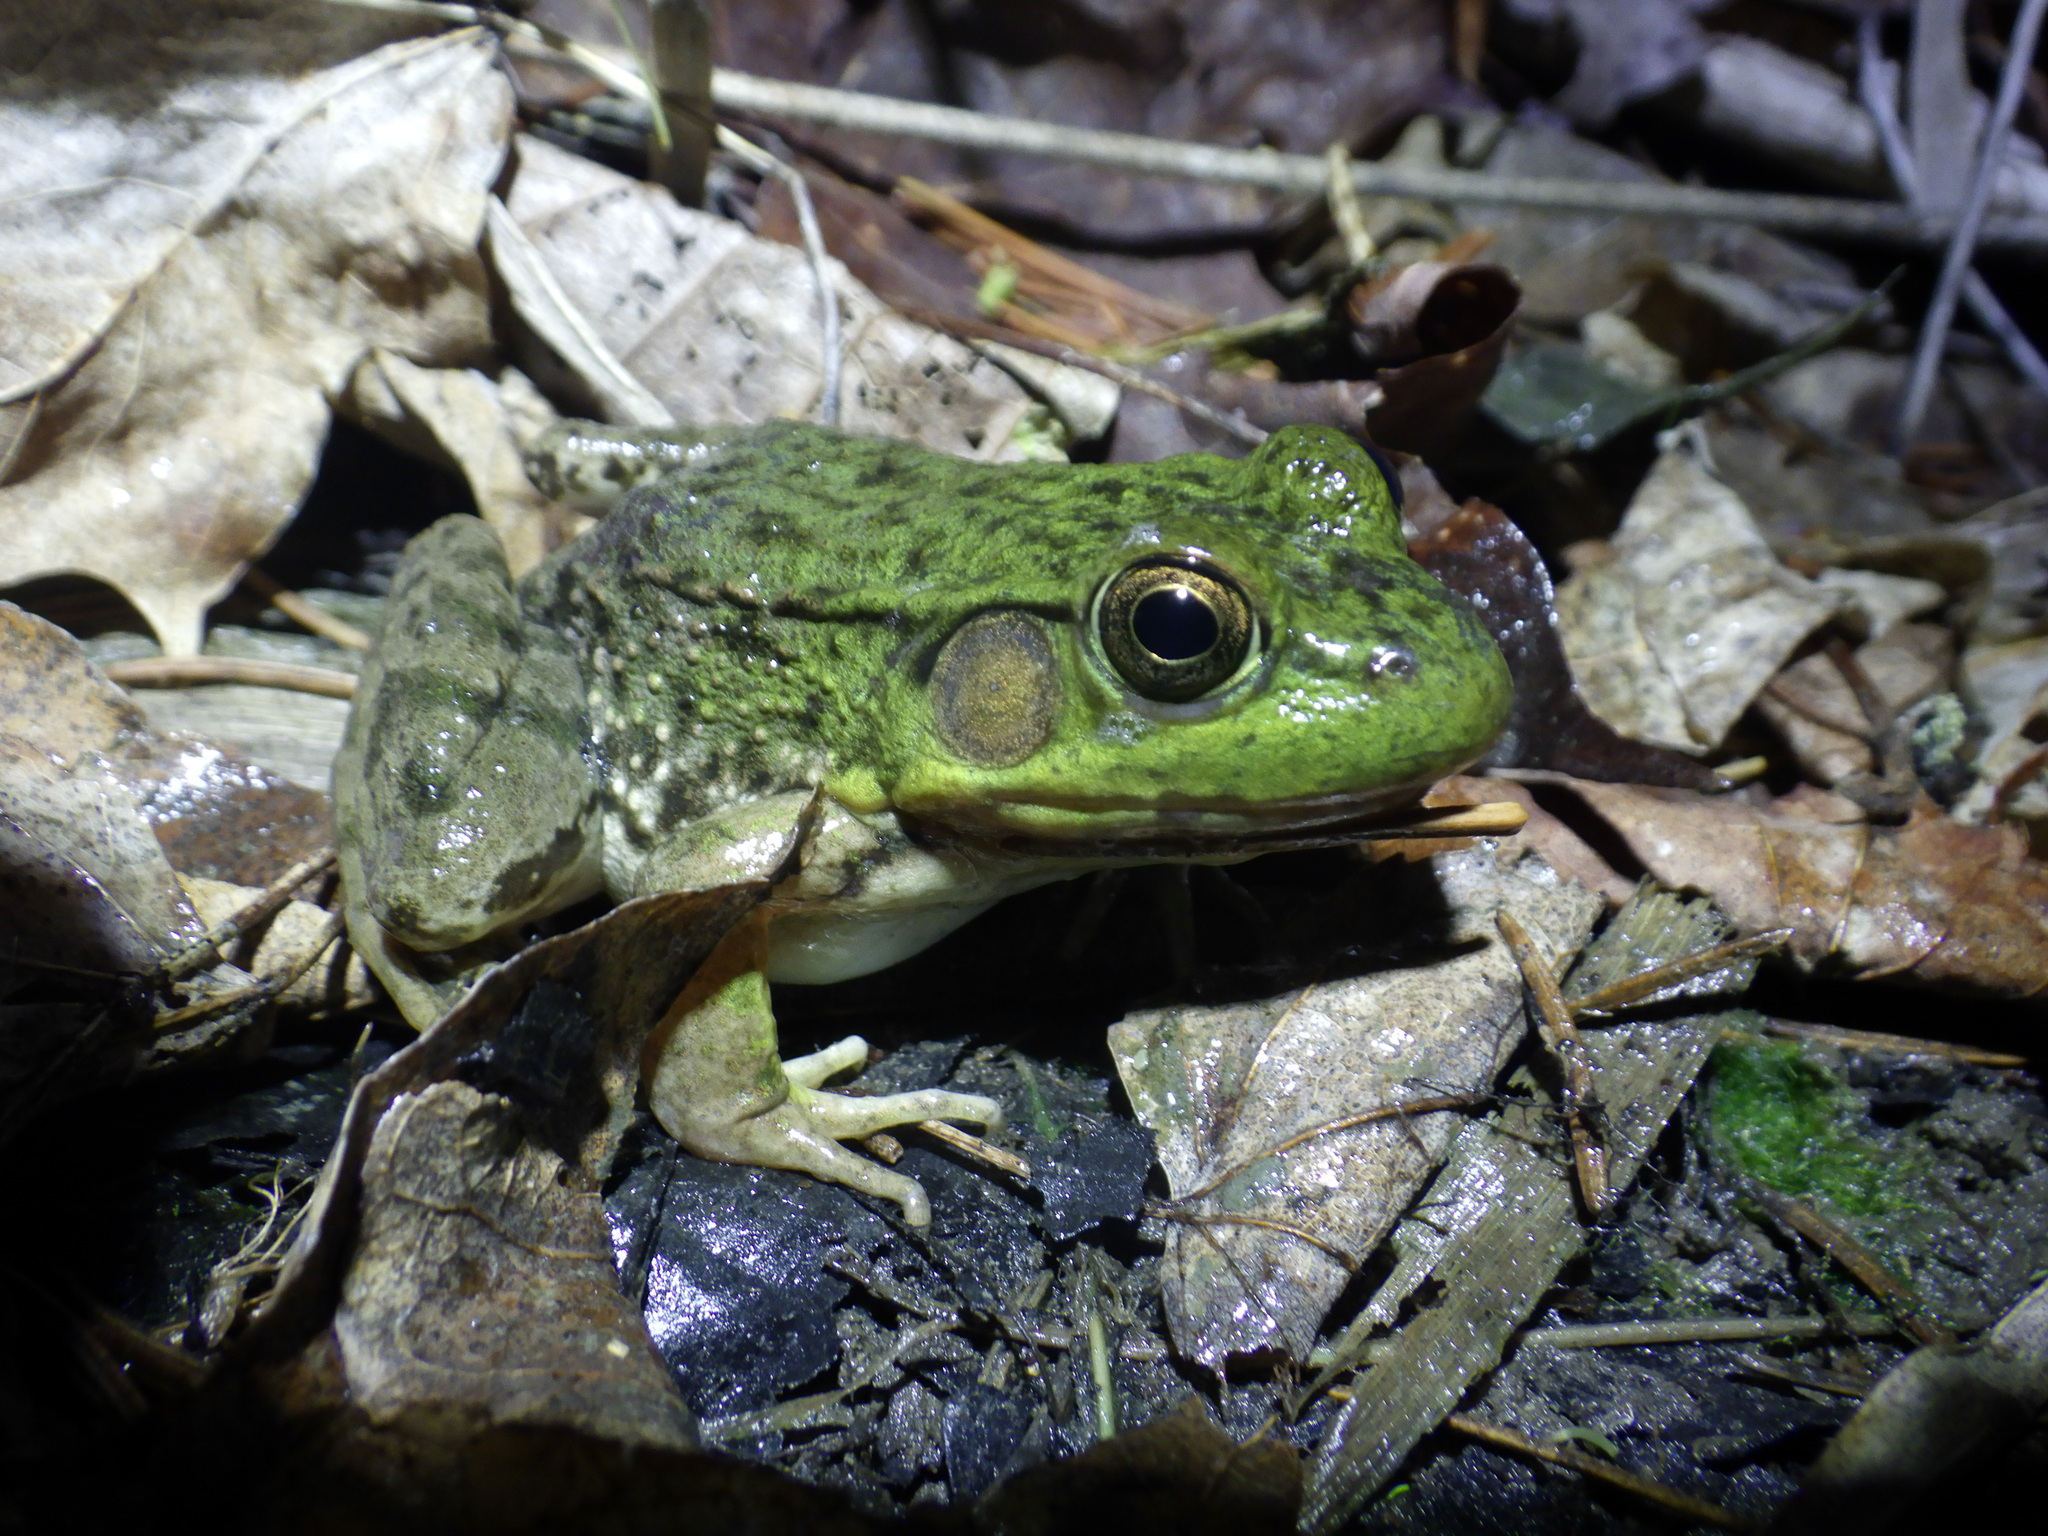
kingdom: Animalia
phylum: Chordata
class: Amphibia
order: Anura
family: Ranidae
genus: Lithobates
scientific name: Lithobates clamitans
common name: Green frog
